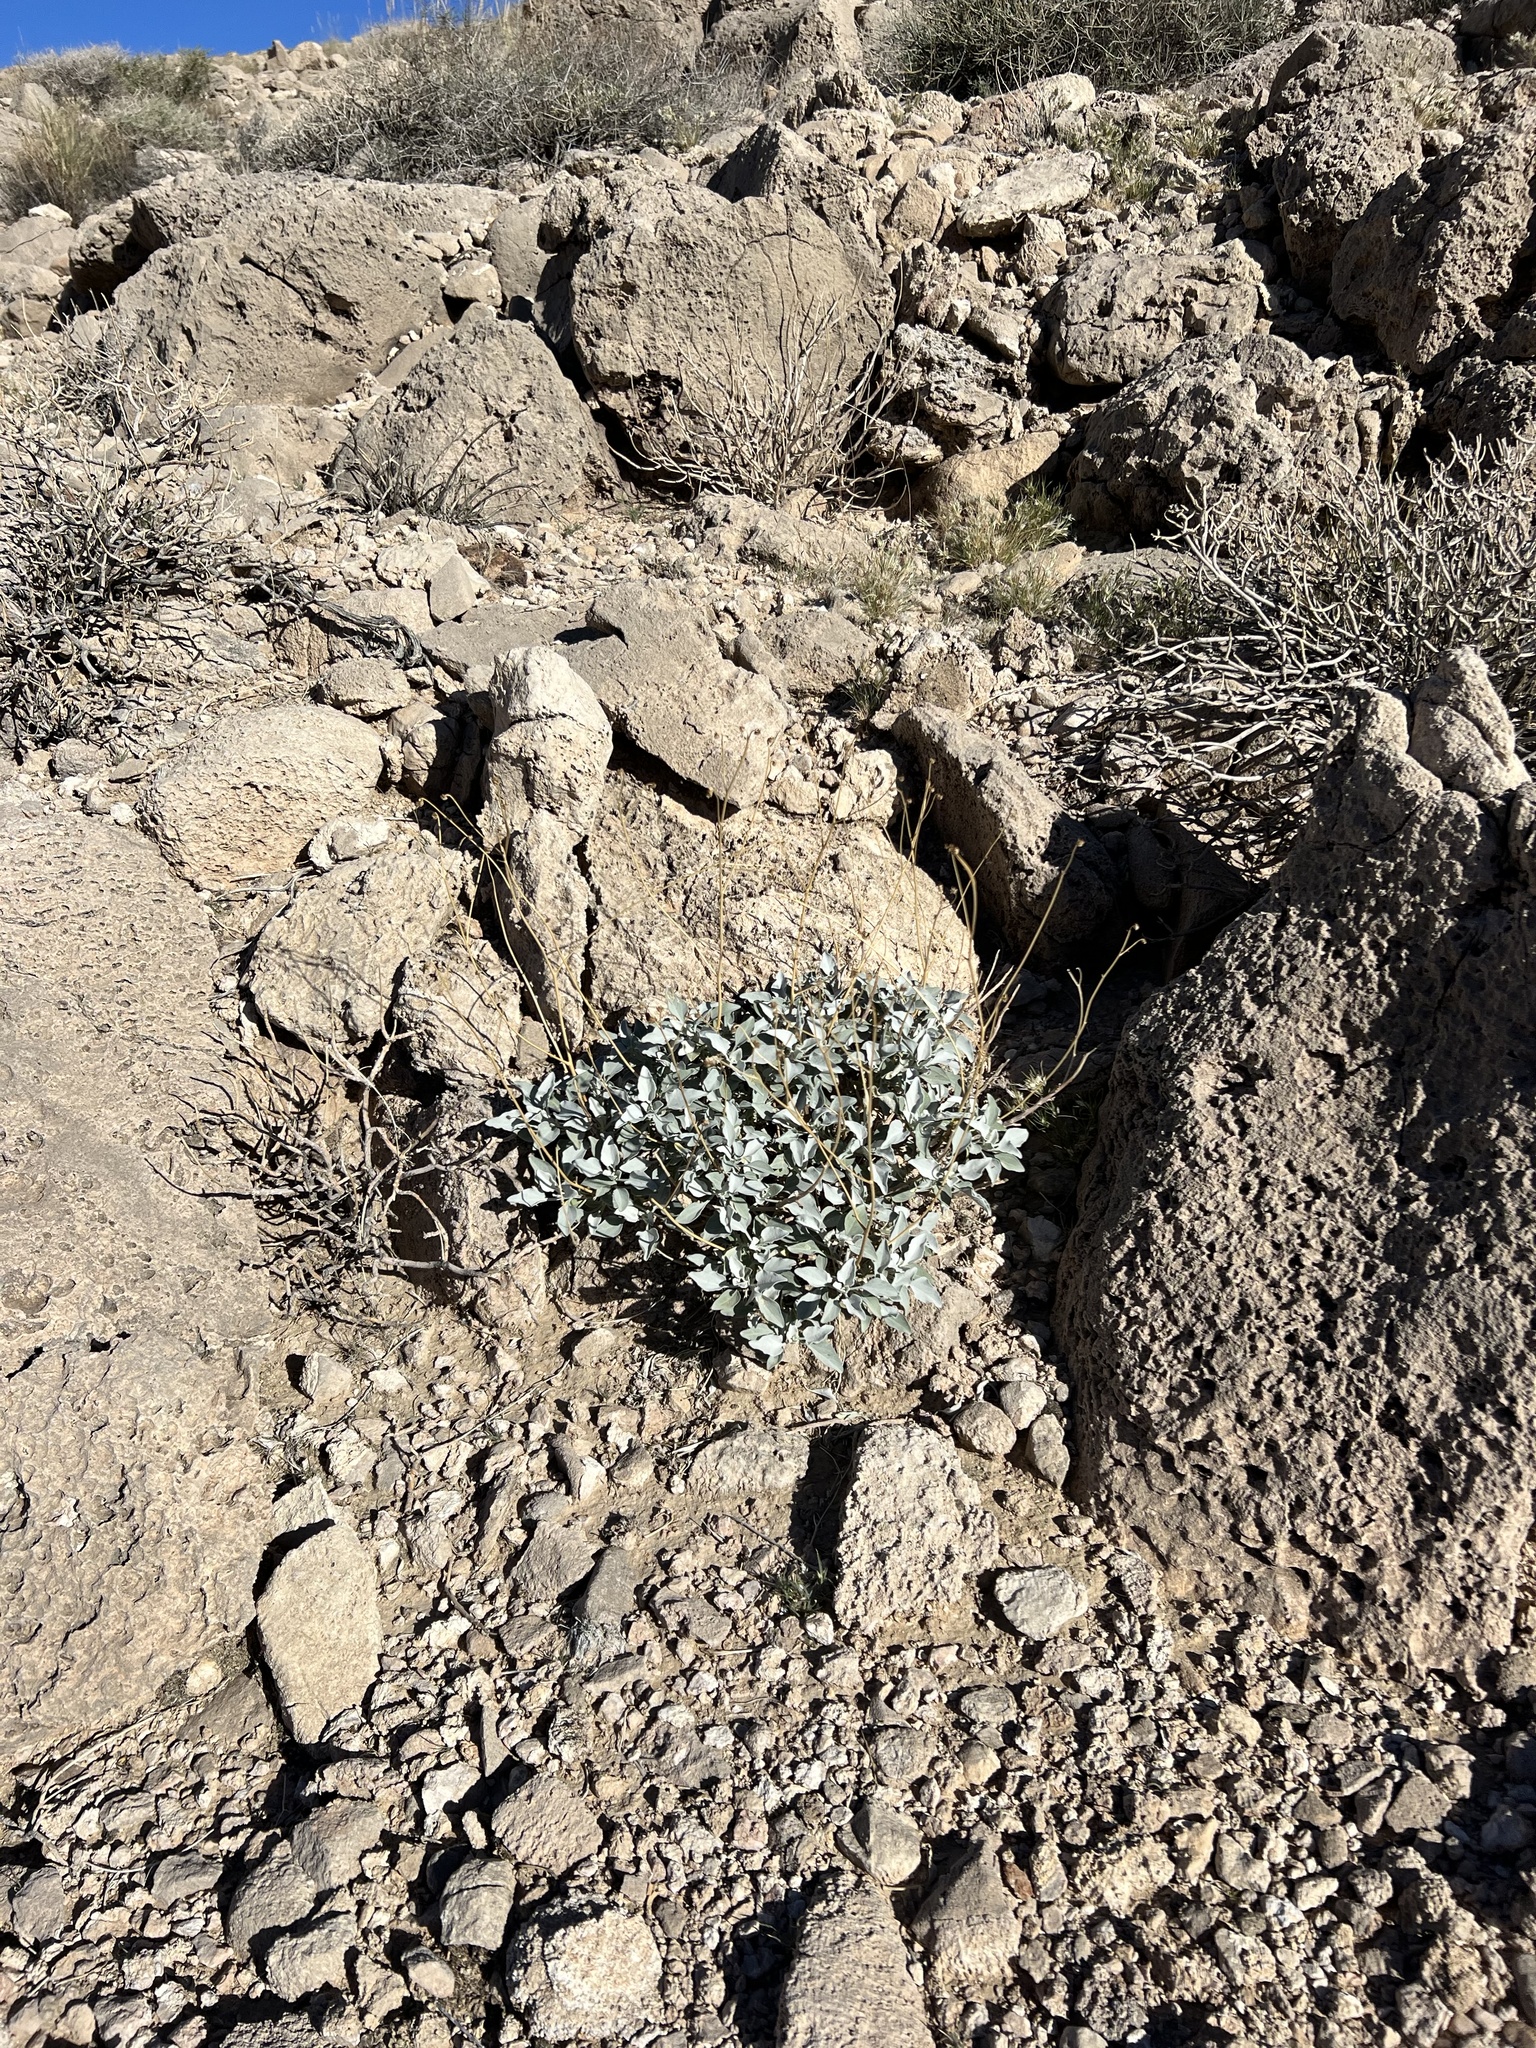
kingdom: Plantae
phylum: Tracheophyta
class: Magnoliopsida
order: Asterales
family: Asteraceae
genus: Encelia
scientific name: Encelia farinosa
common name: Brittlebush
